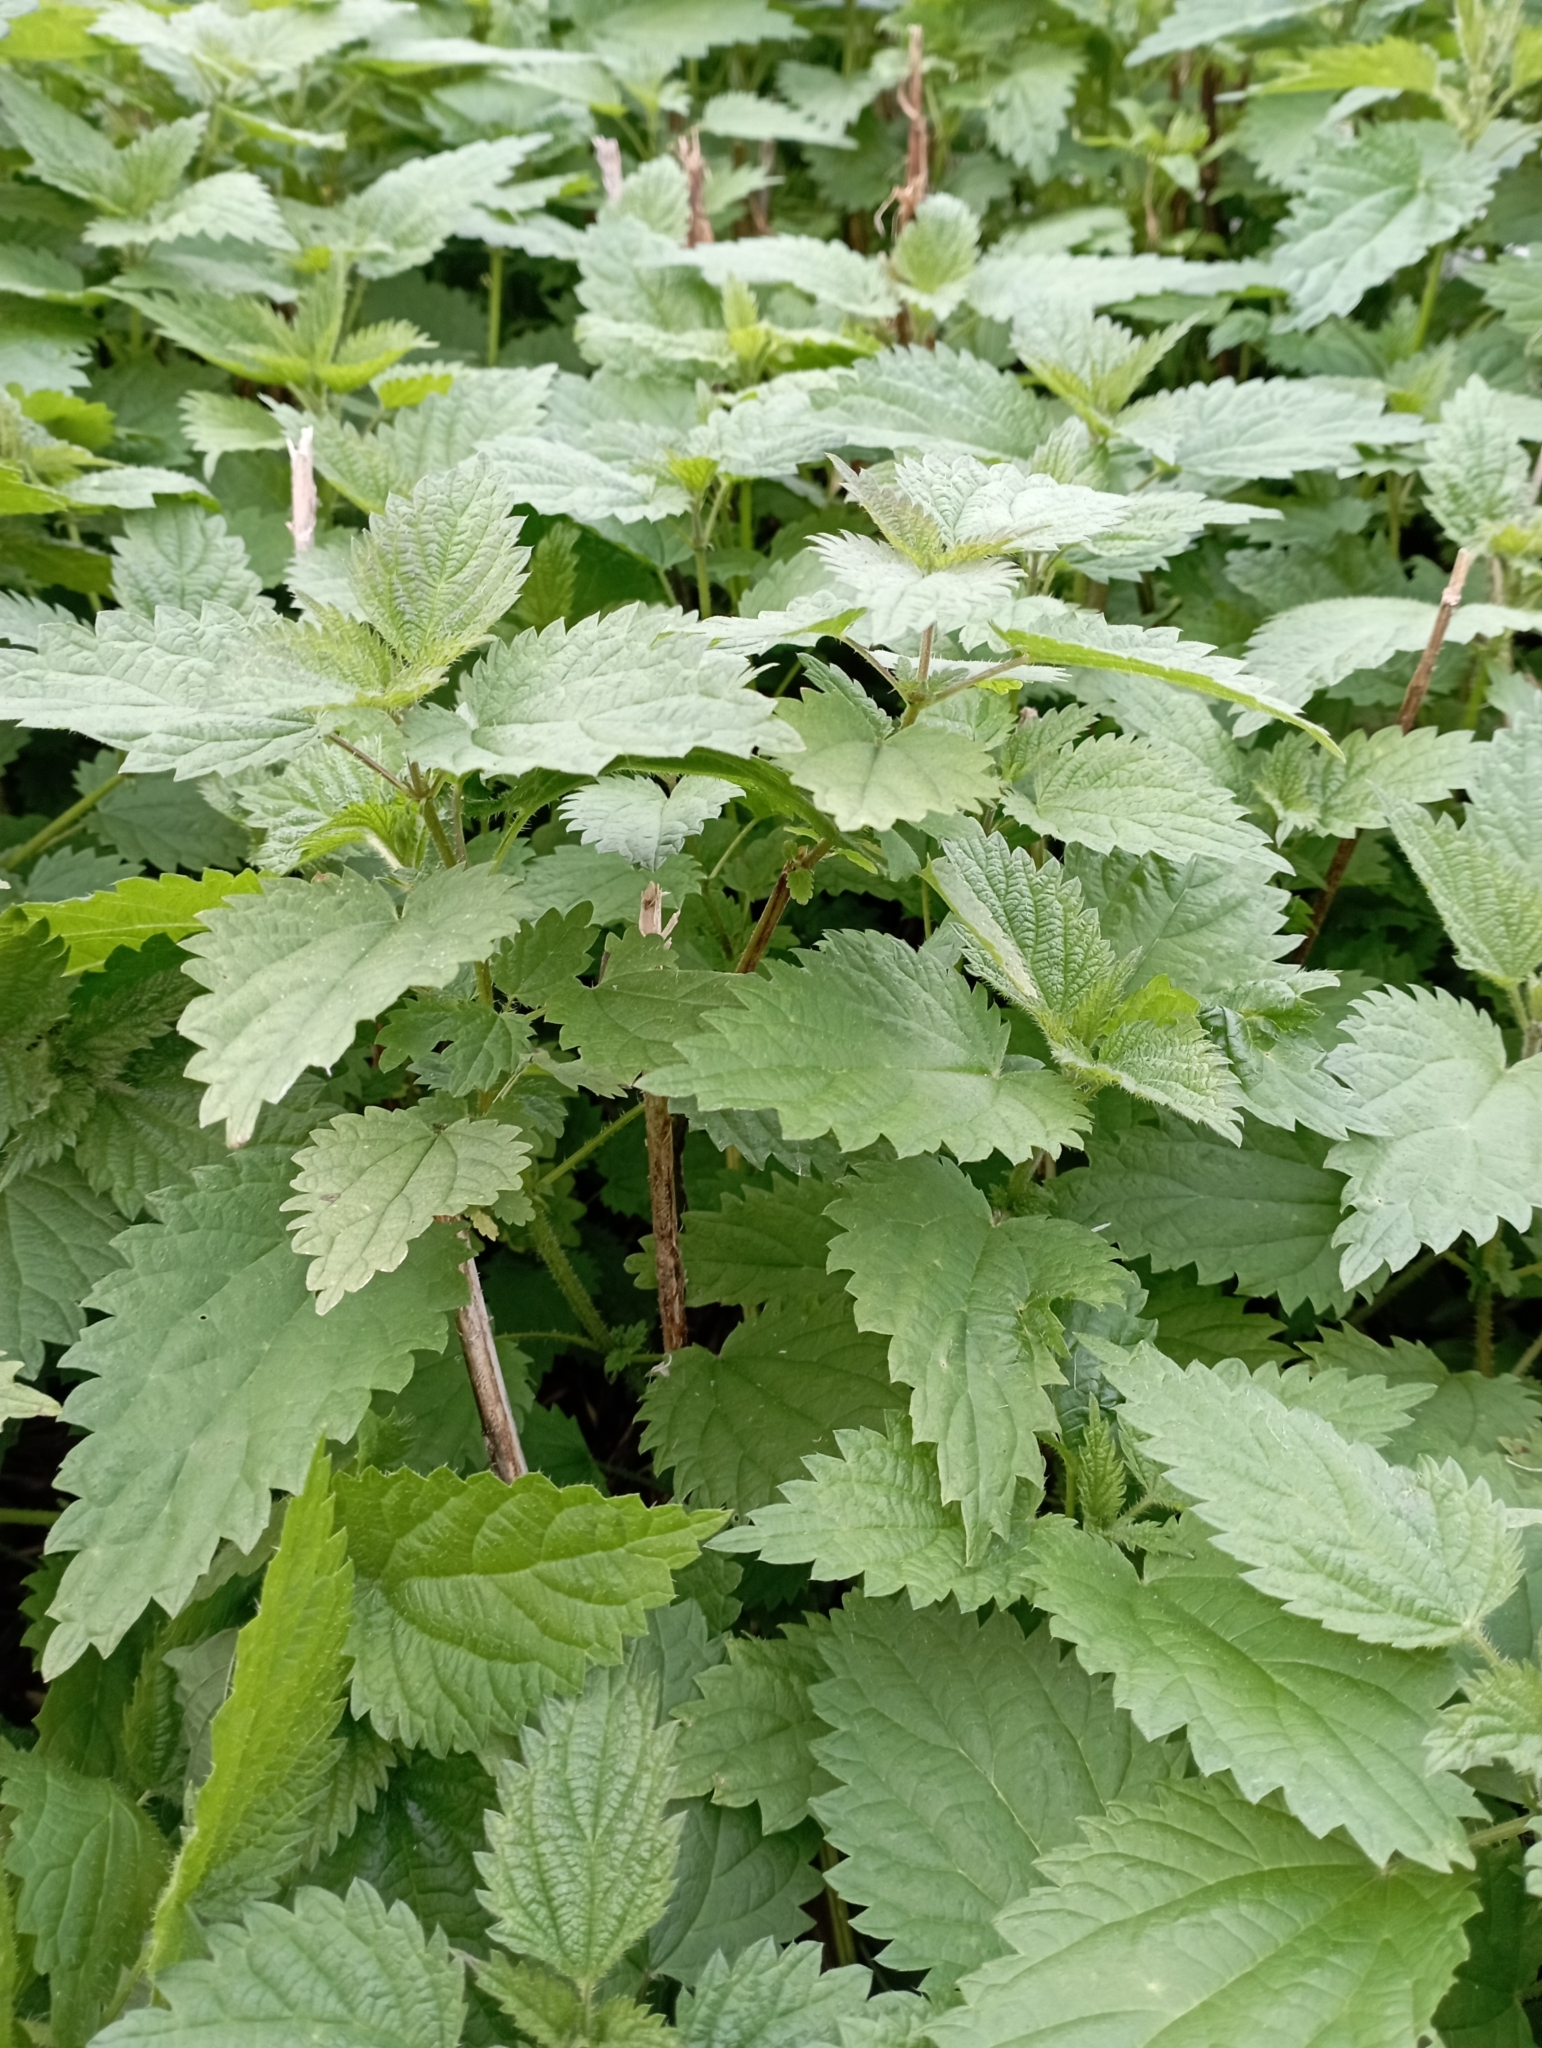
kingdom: Plantae
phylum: Tracheophyta
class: Magnoliopsida
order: Rosales
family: Urticaceae
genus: Urtica
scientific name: Urtica dioica
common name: Common nettle
